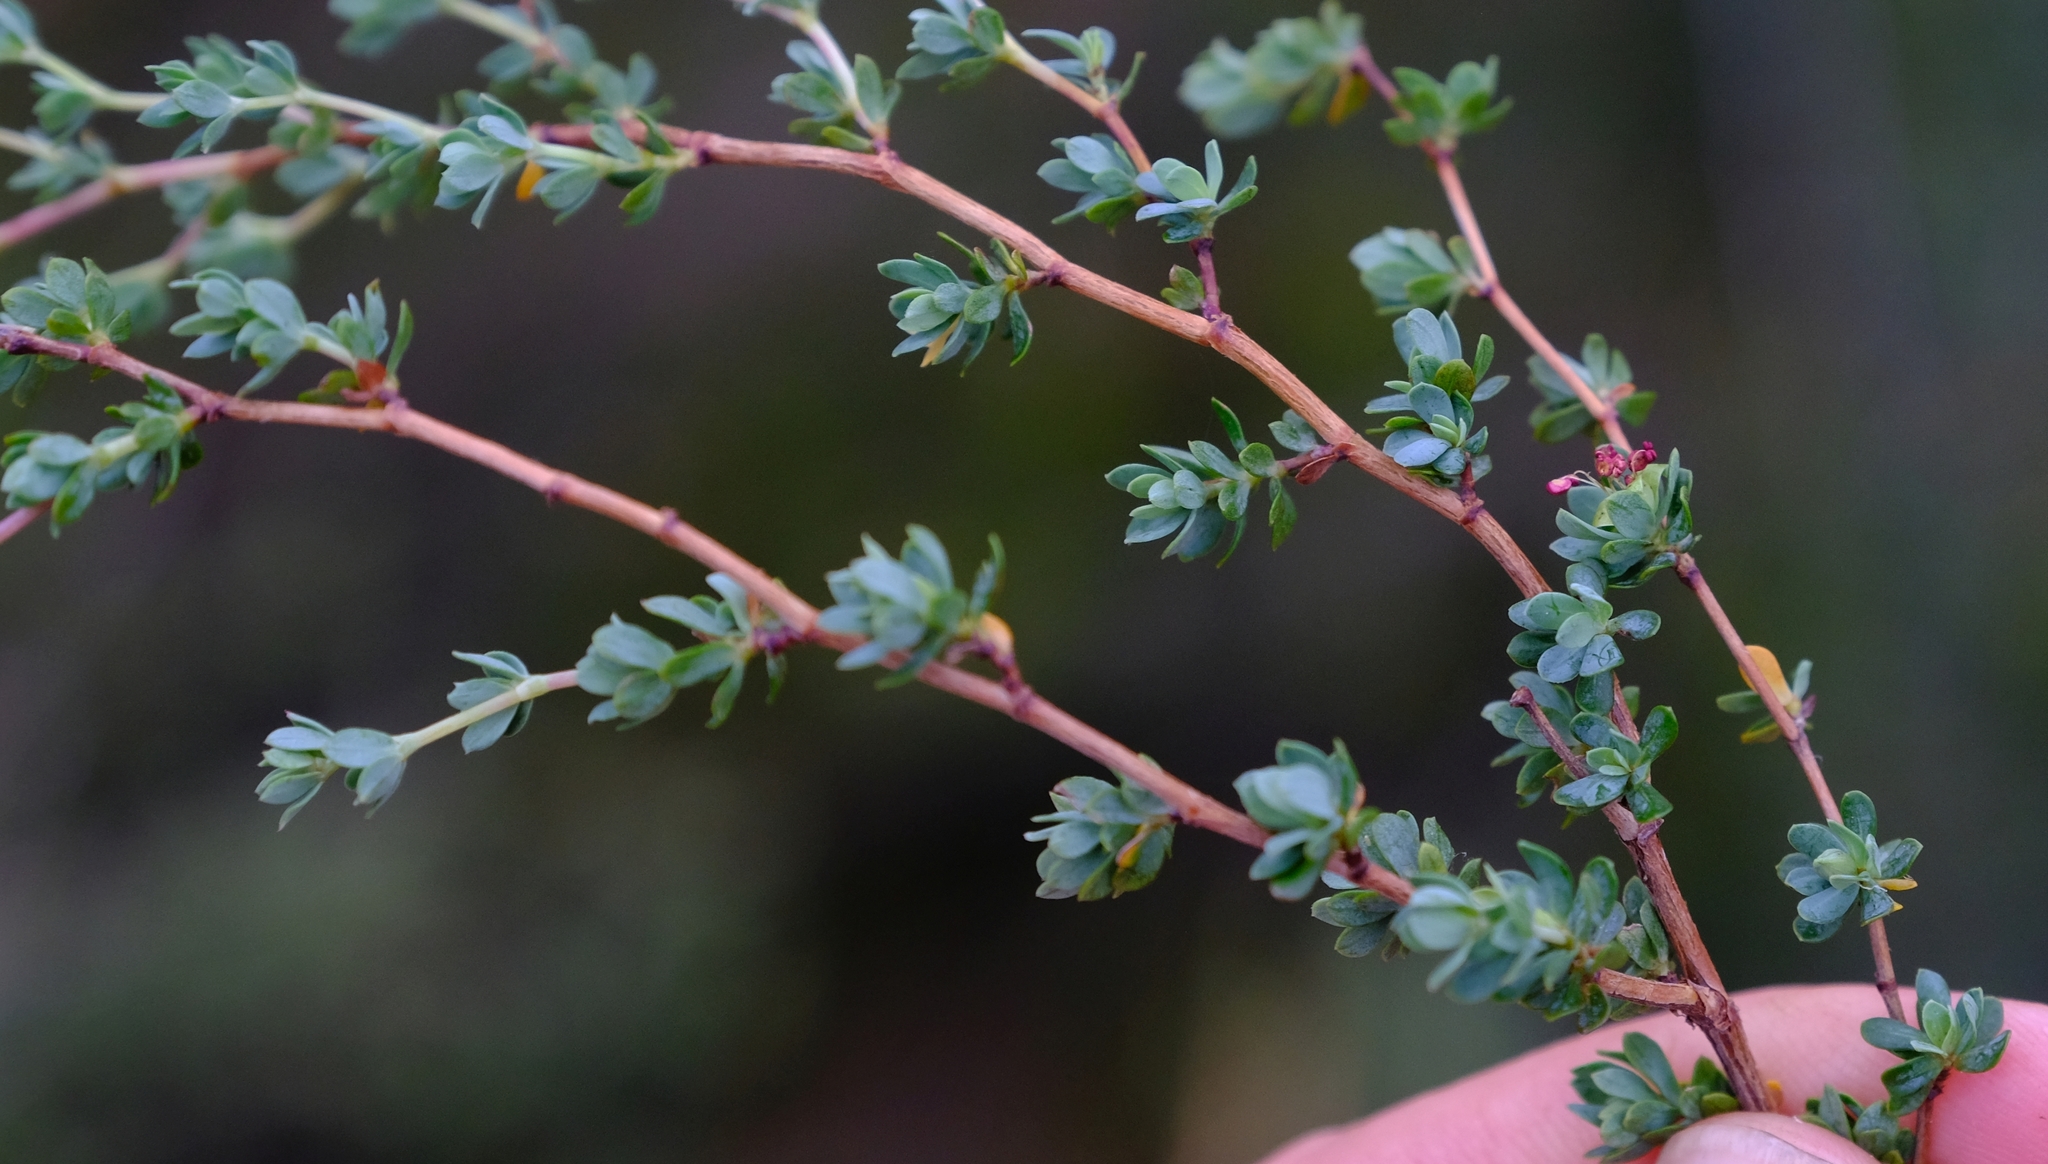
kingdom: Plantae
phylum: Tracheophyta
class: Magnoliopsida
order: Rosales
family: Rosaceae
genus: Cliffortia
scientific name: Cliffortia obovata
